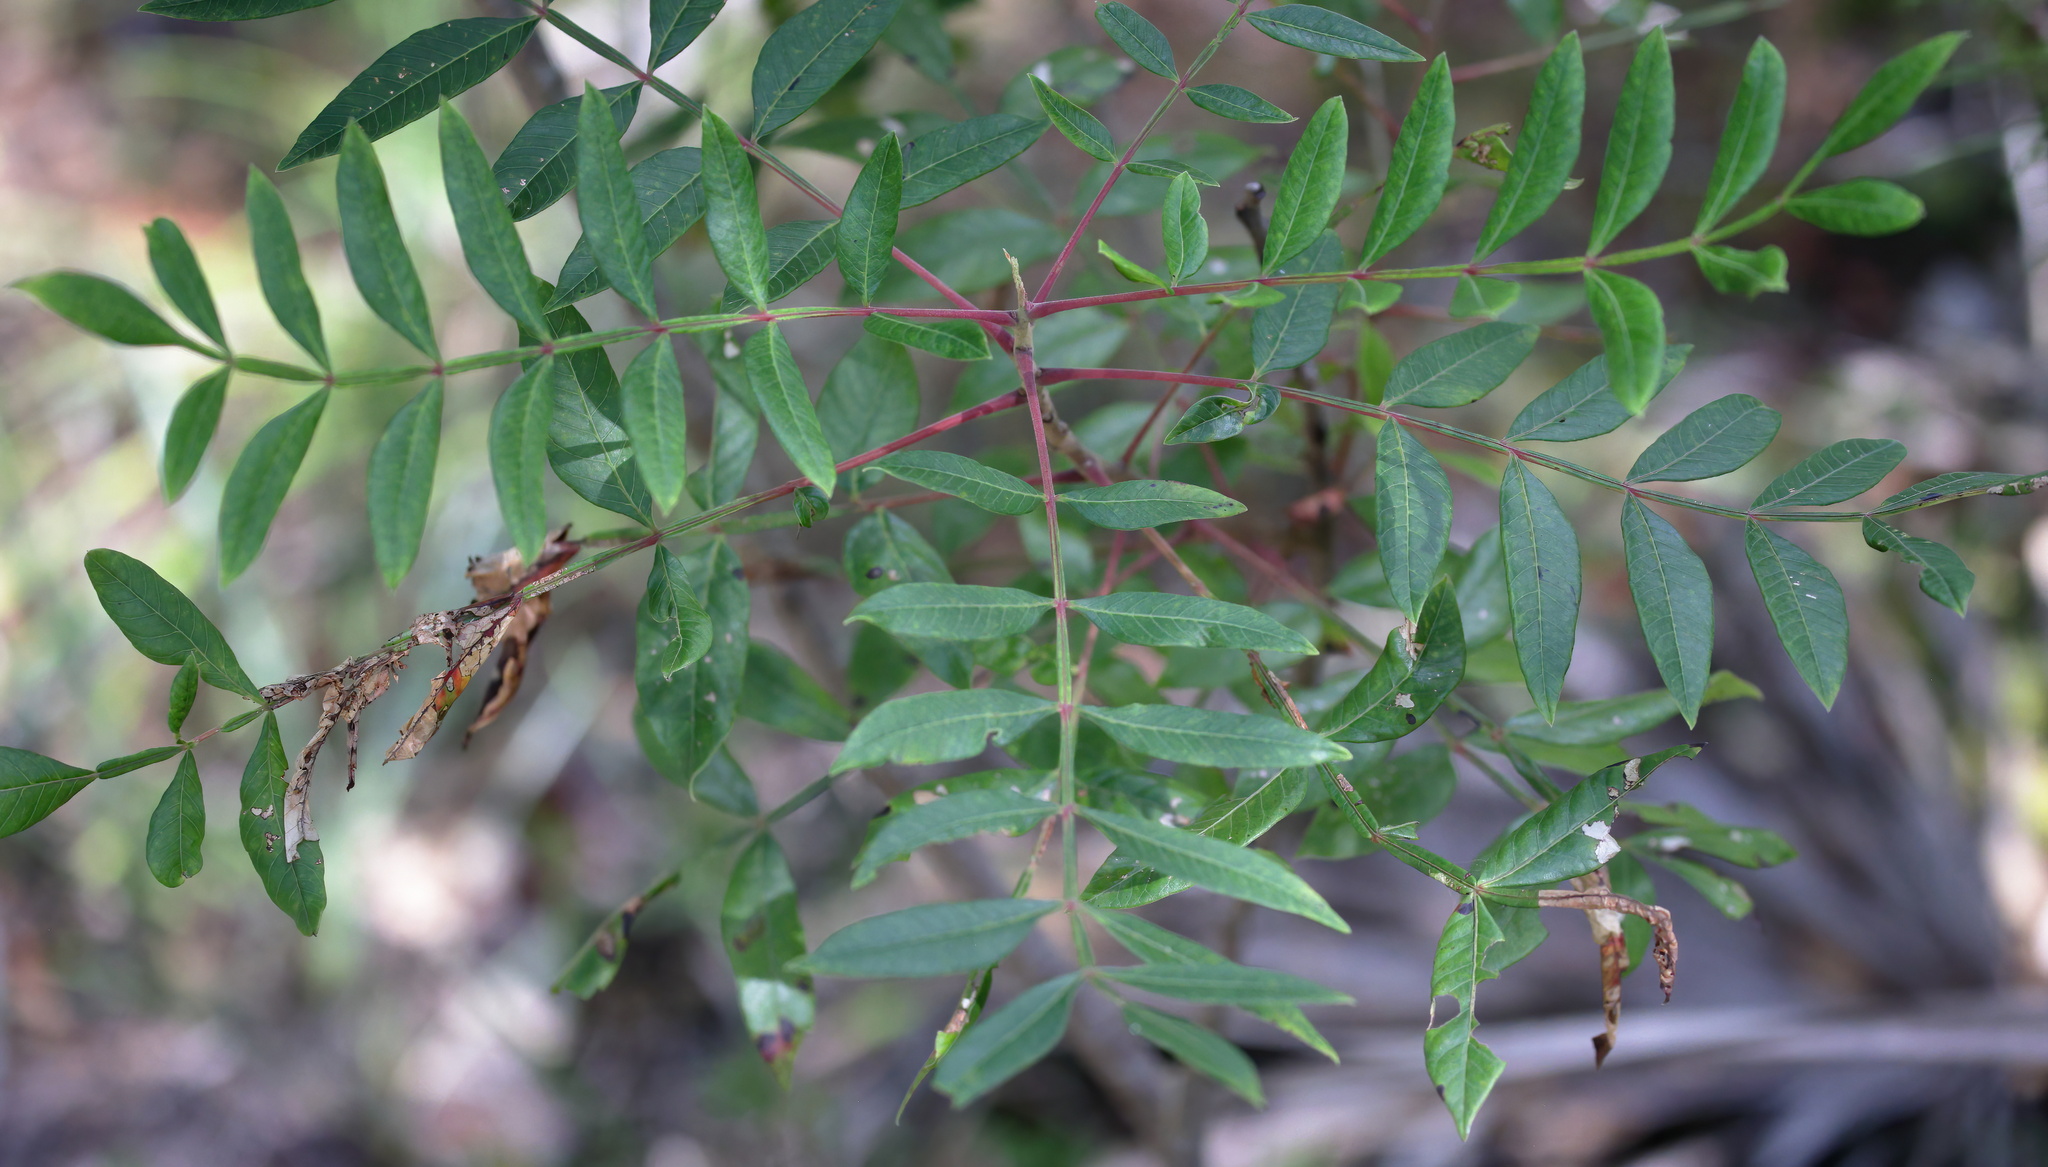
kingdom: Plantae
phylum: Tracheophyta
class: Magnoliopsida
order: Sapindales
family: Anacardiaceae
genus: Rhus
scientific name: Rhus copallina
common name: Shining sumac
